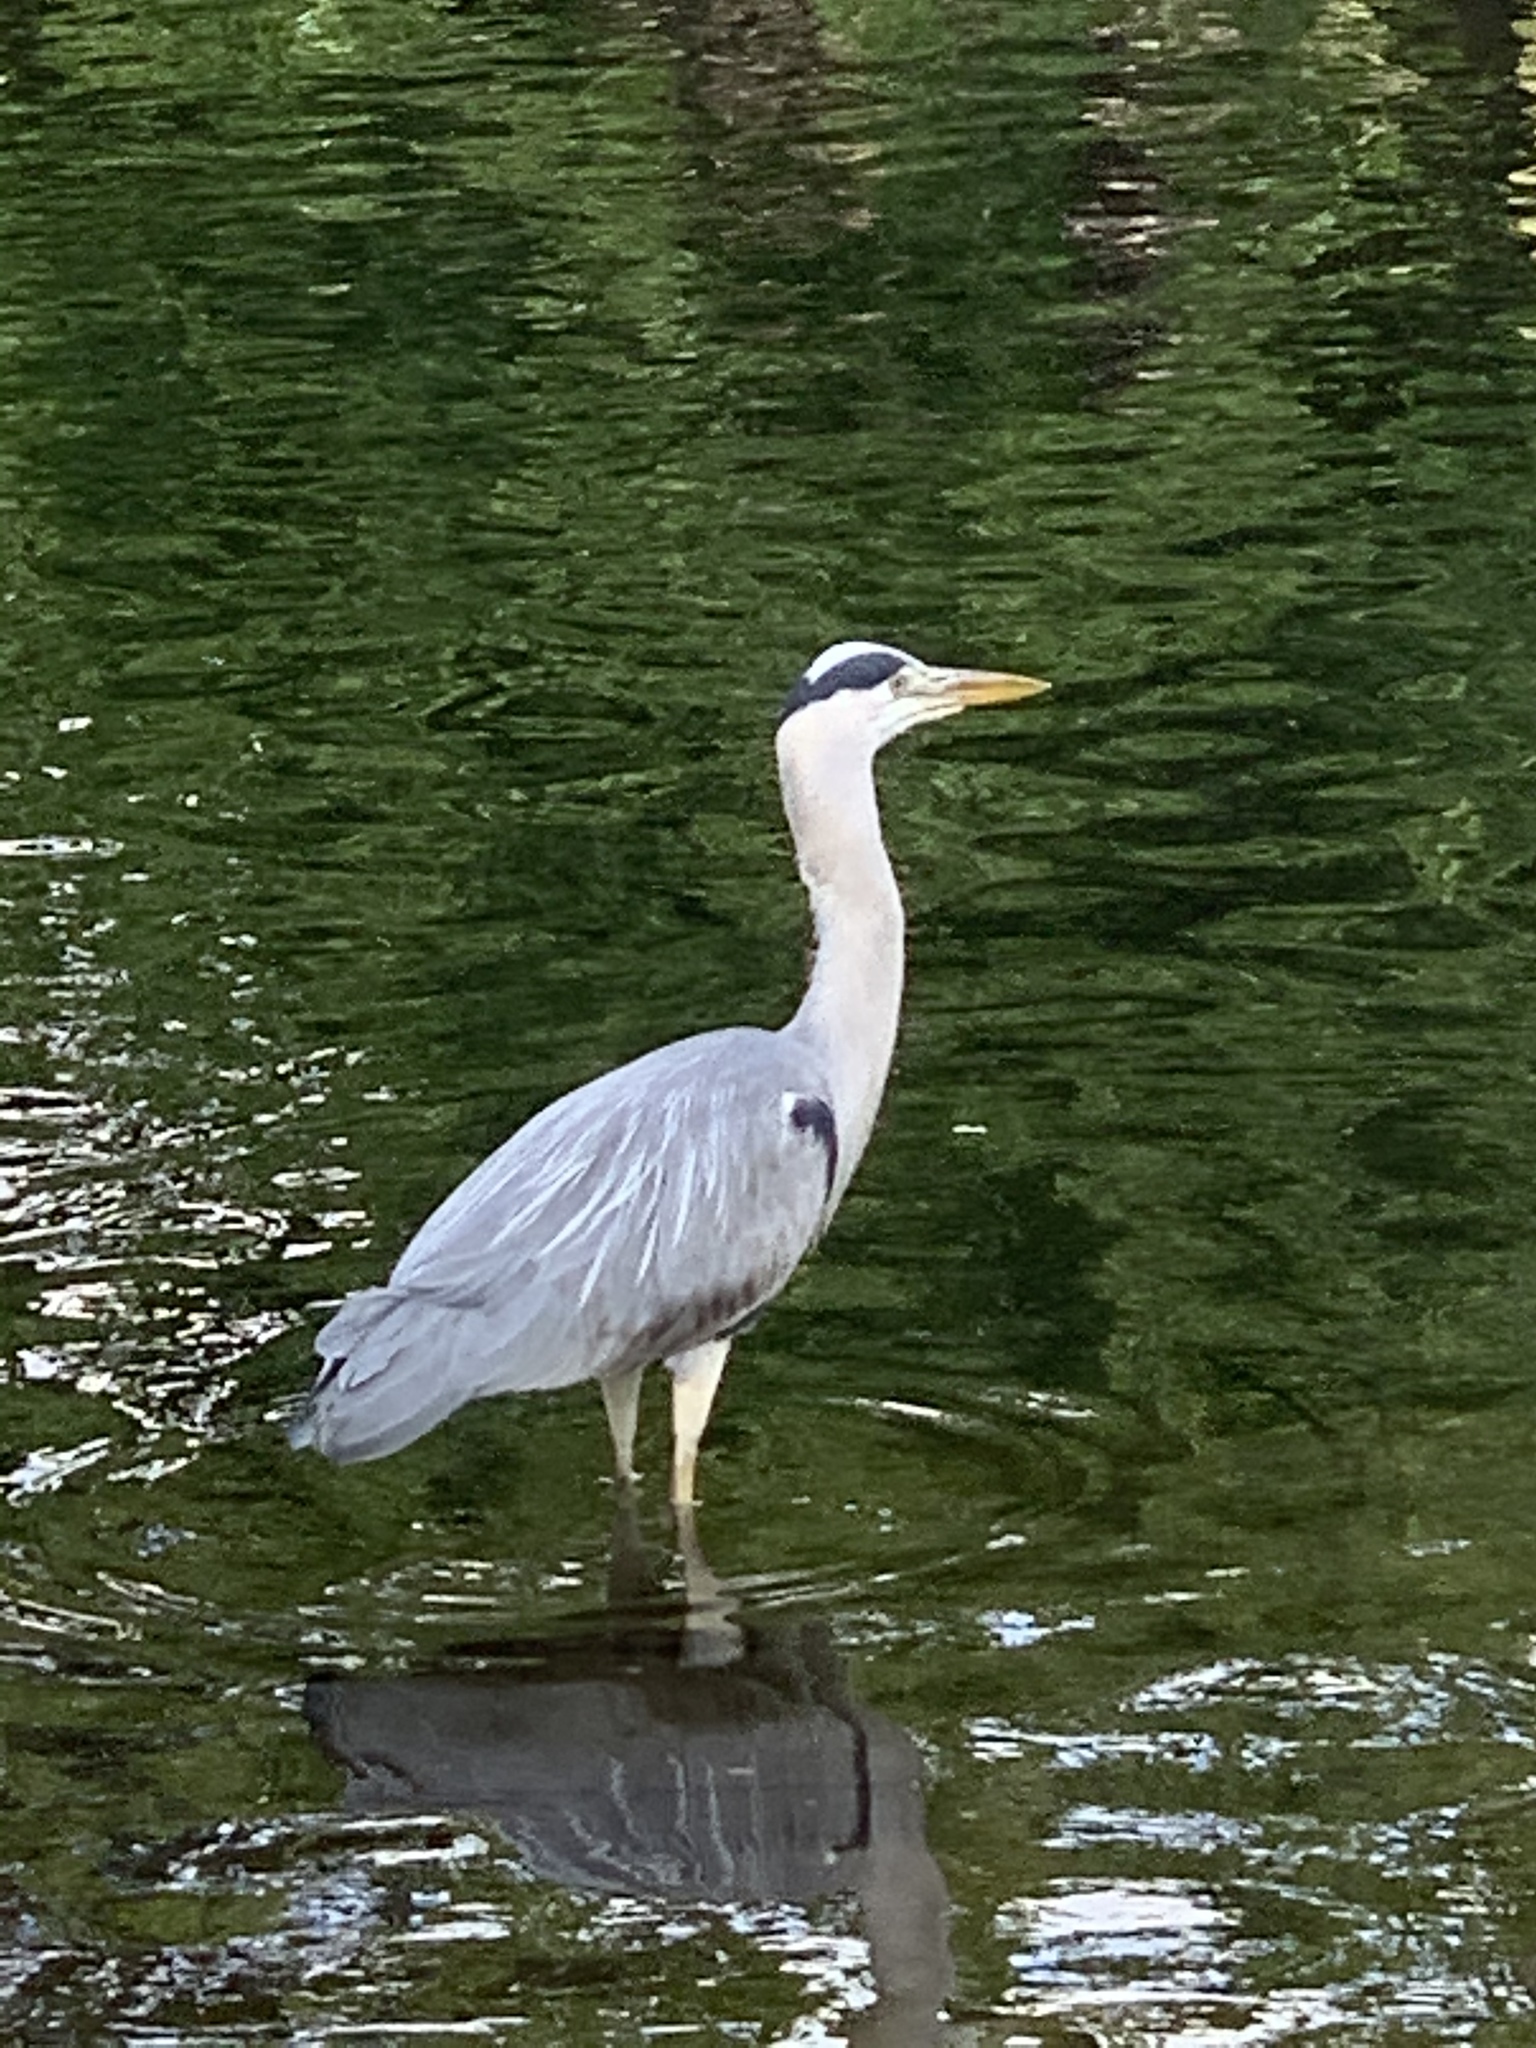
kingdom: Animalia
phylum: Chordata
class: Aves
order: Pelecaniformes
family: Ardeidae
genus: Ardea
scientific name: Ardea cinerea
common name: Grey heron
